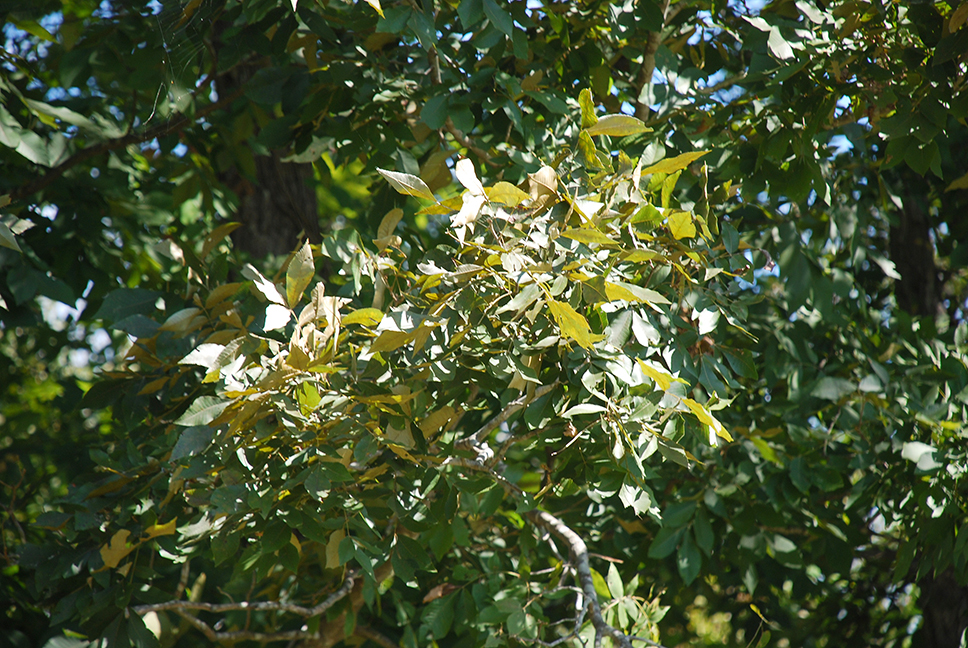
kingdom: Plantae
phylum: Tracheophyta
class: Magnoliopsida
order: Fagales
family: Juglandaceae
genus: Carya
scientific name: Carya myristiciformis
